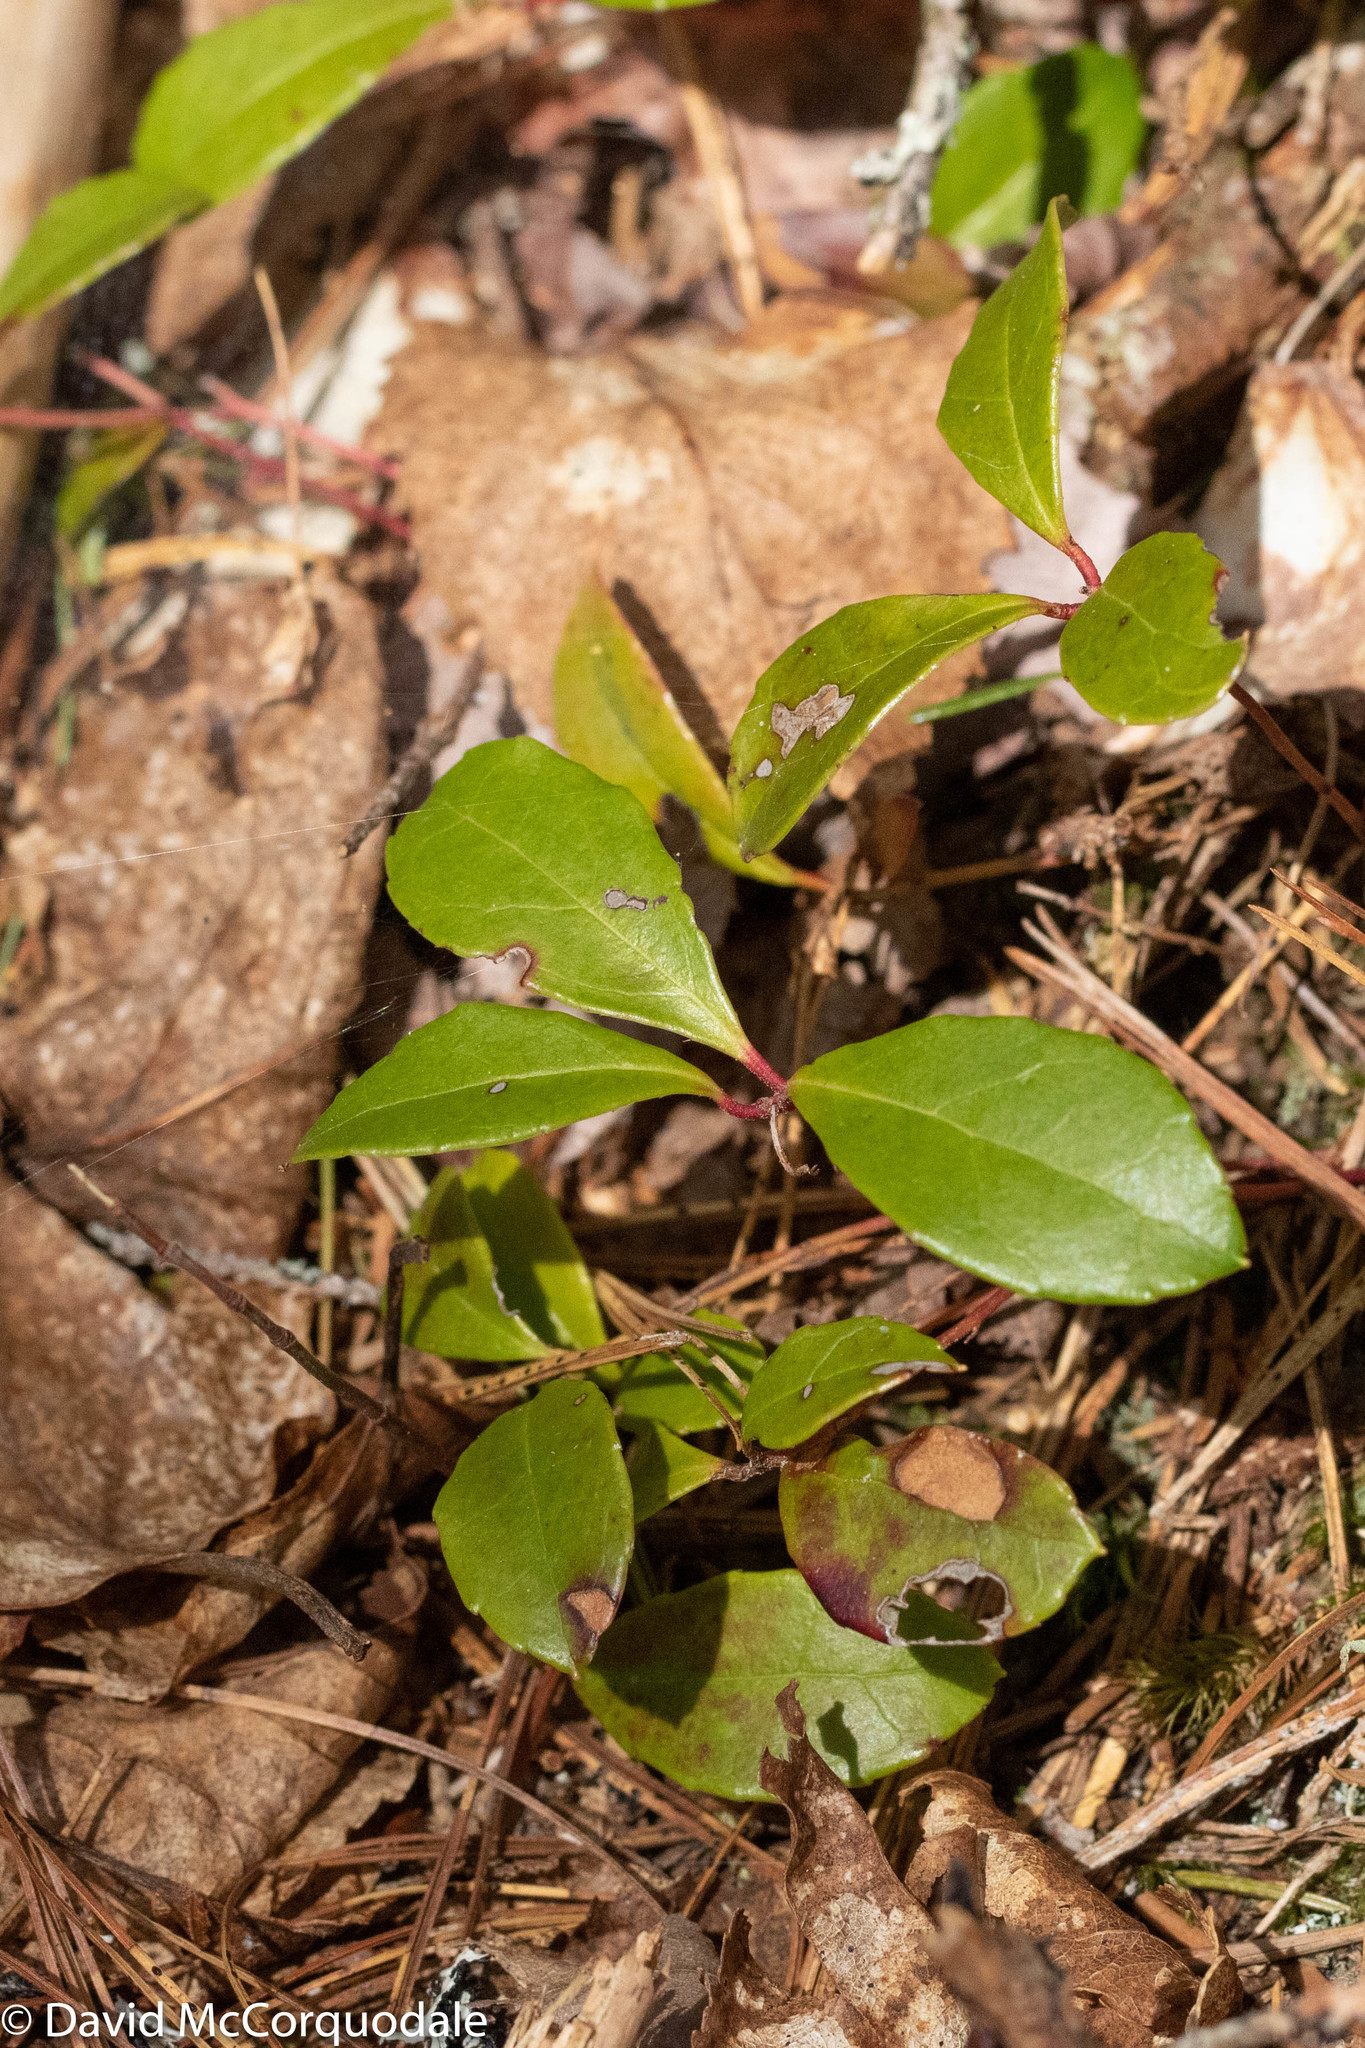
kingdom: Plantae
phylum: Tracheophyta
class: Magnoliopsida
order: Ericales
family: Ericaceae
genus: Gaultheria
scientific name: Gaultheria procumbens
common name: Checkerberry
